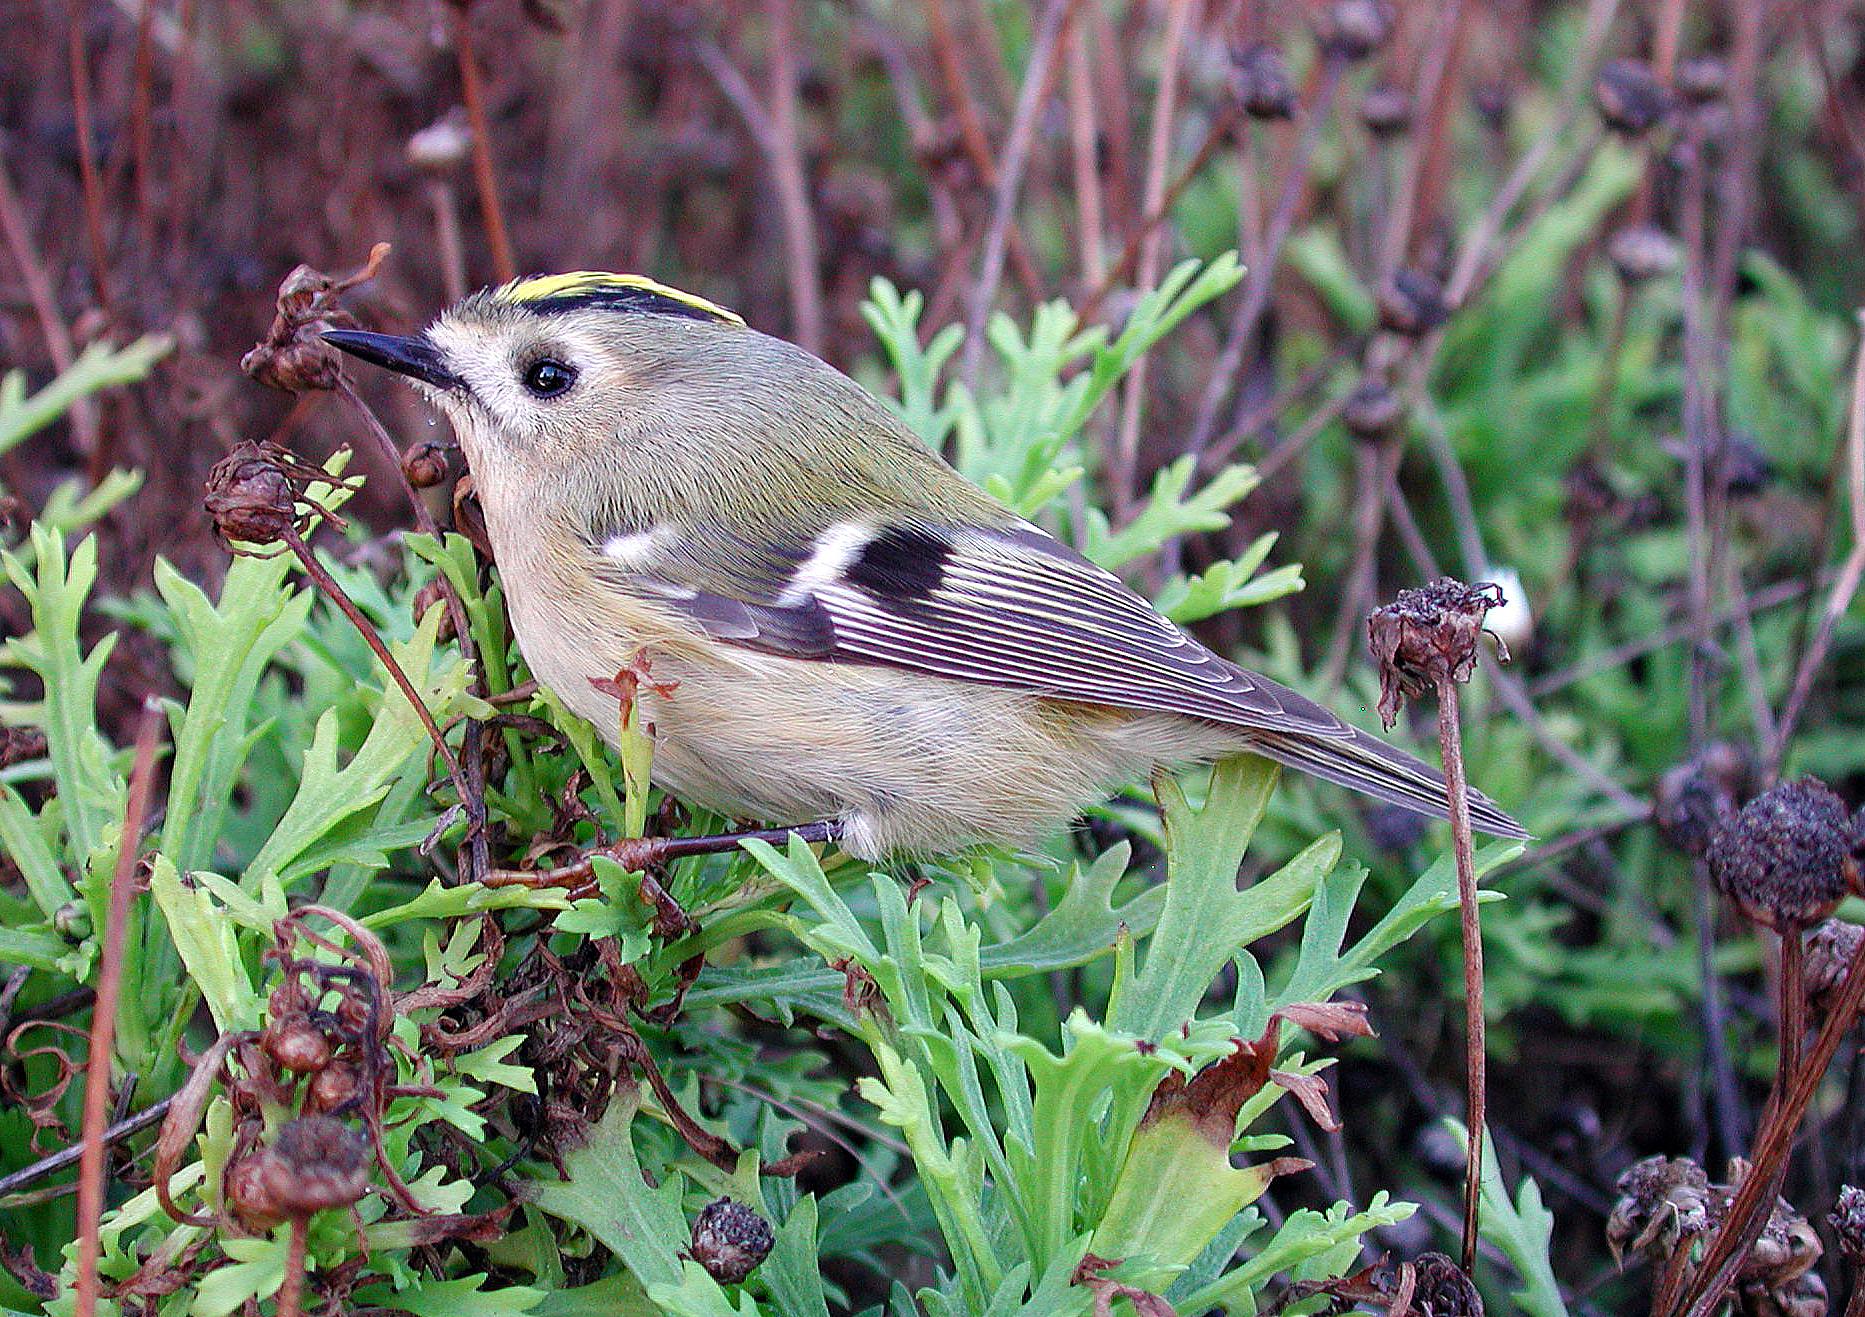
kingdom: Animalia
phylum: Chordata
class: Aves
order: Passeriformes
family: Regulidae
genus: Regulus
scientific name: Regulus regulus
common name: Goldcrest
